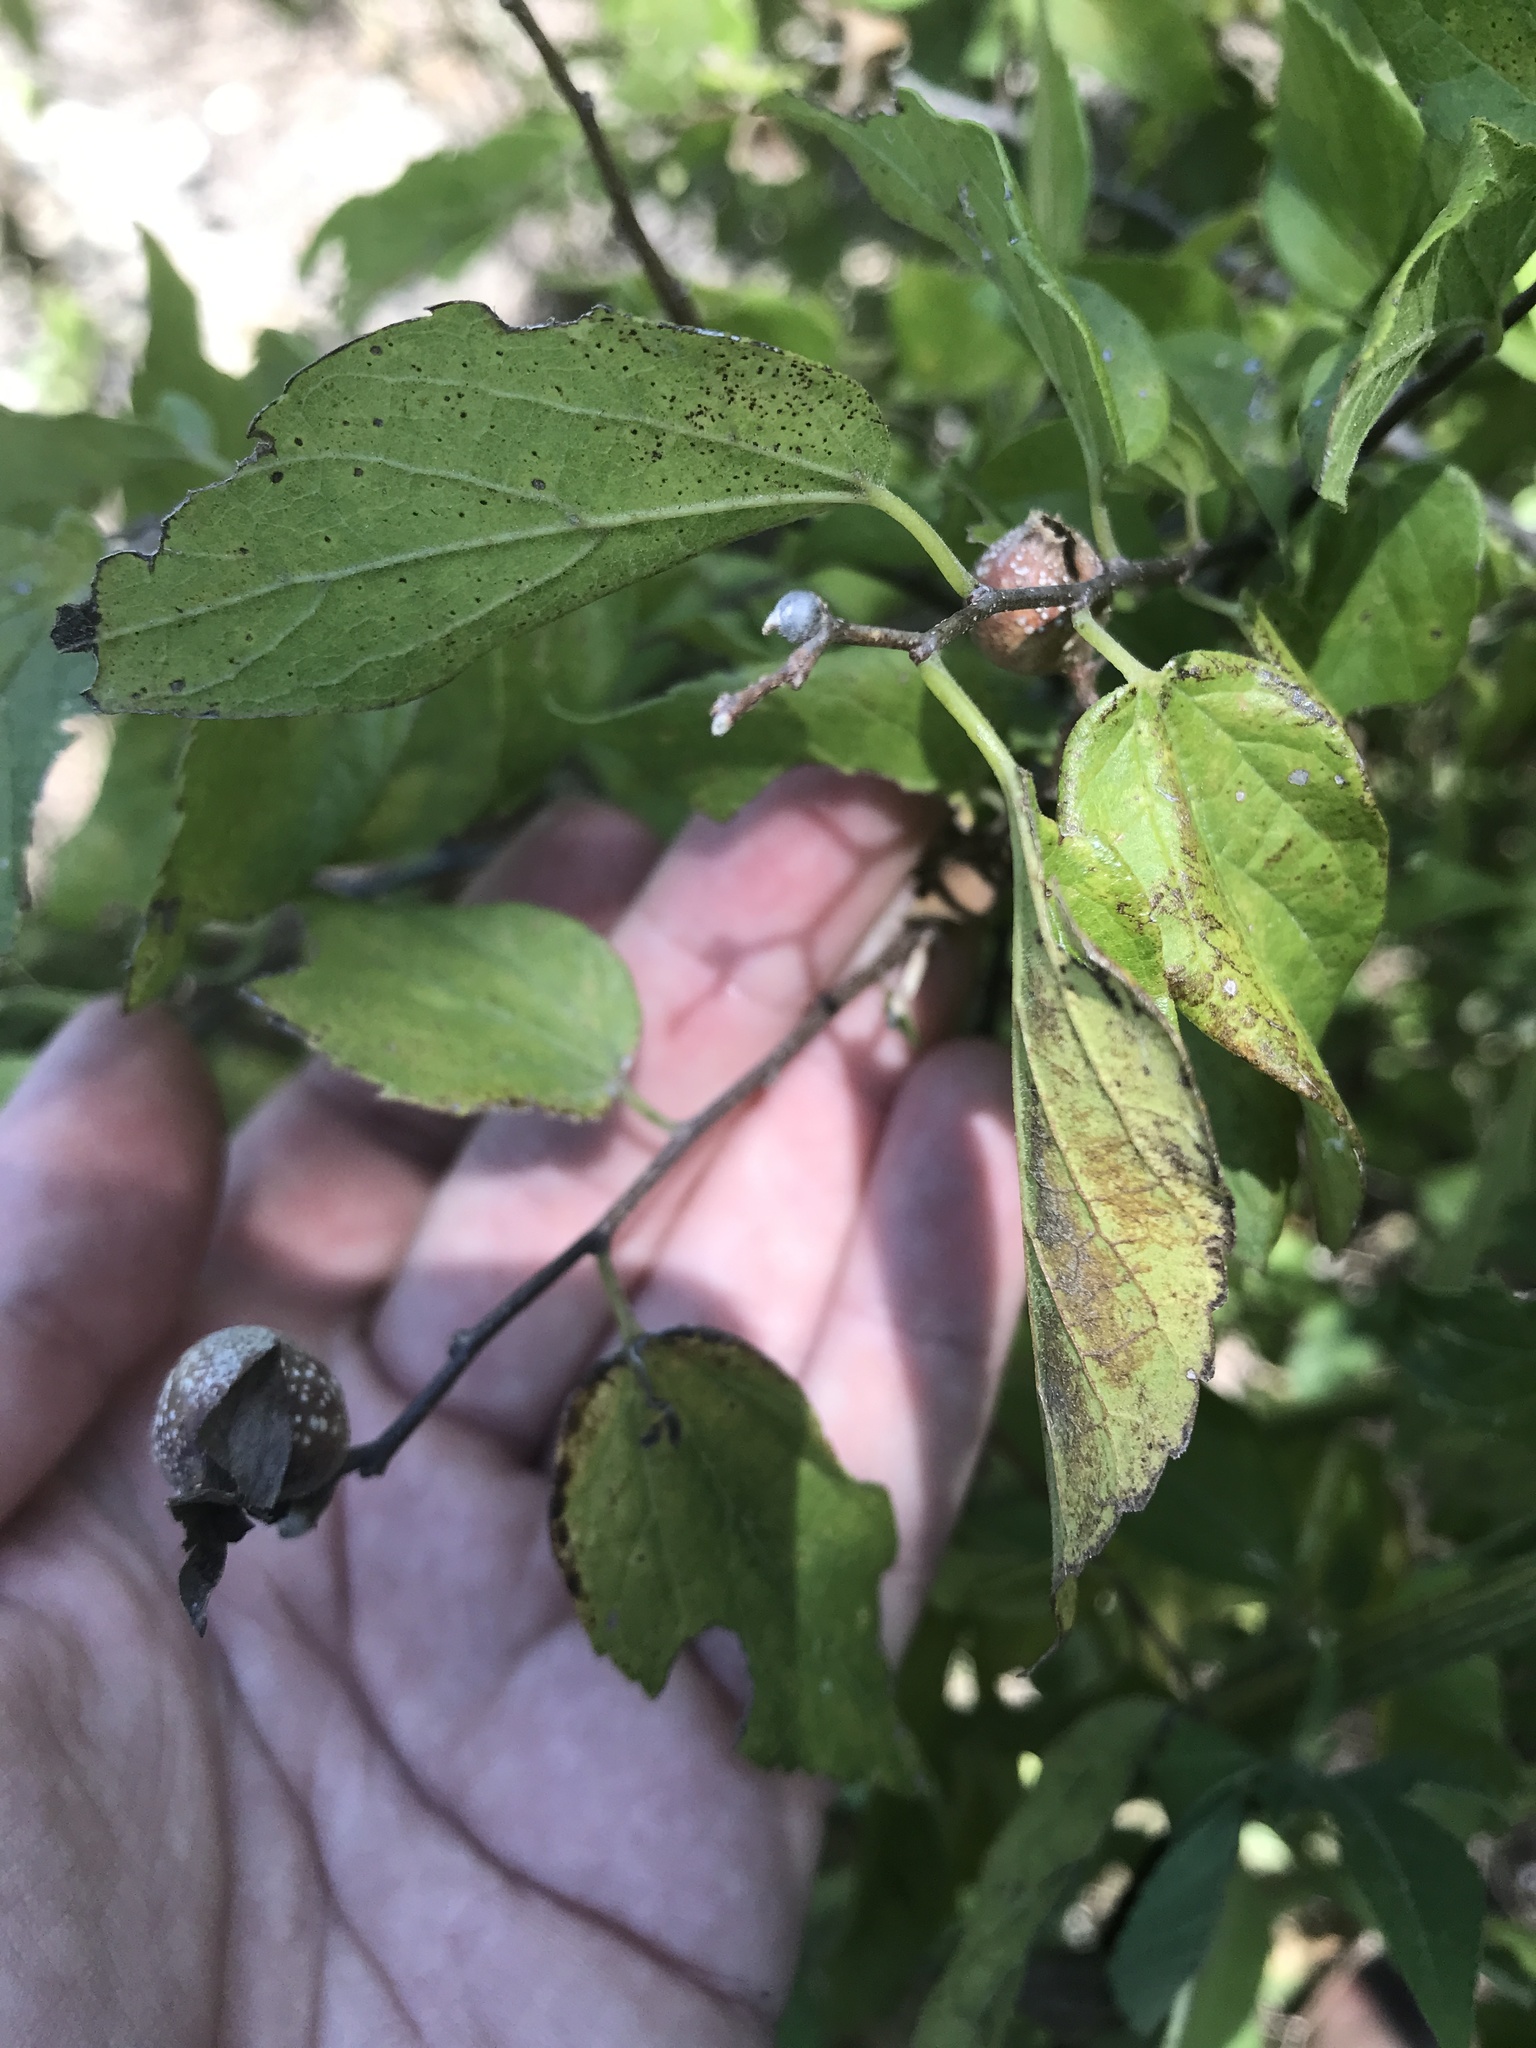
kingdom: Animalia
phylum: Arthropoda
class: Insecta
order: Hemiptera
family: Aphalaridae
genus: Pachypsylla
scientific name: Pachypsylla venusta
